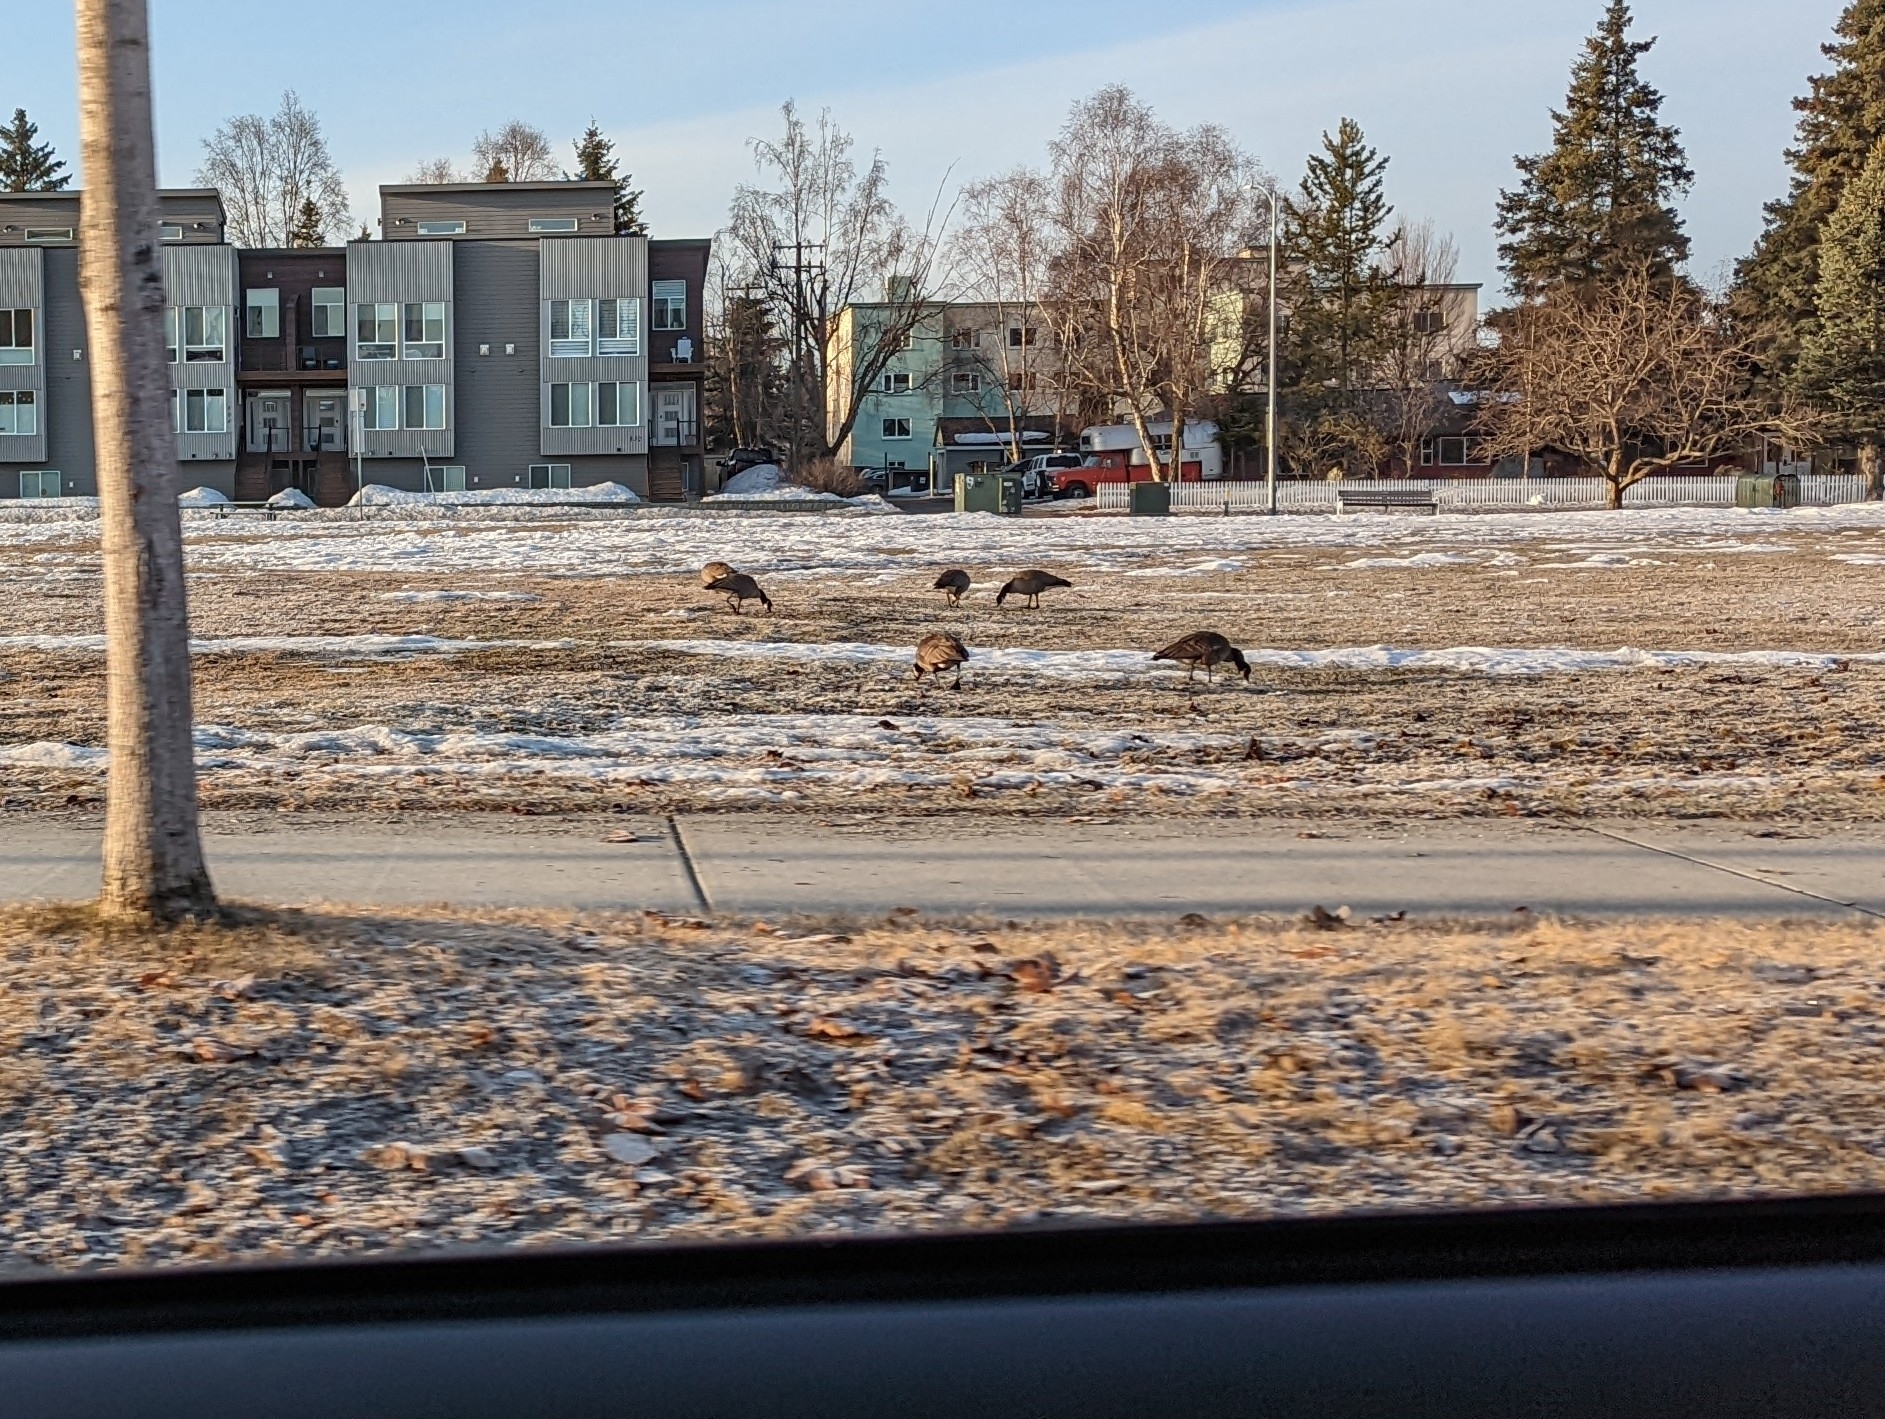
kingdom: Animalia
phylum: Chordata
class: Aves
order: Anseriformes
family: Anatidae
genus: Branta
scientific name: Branta canadensis
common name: Canada goose
